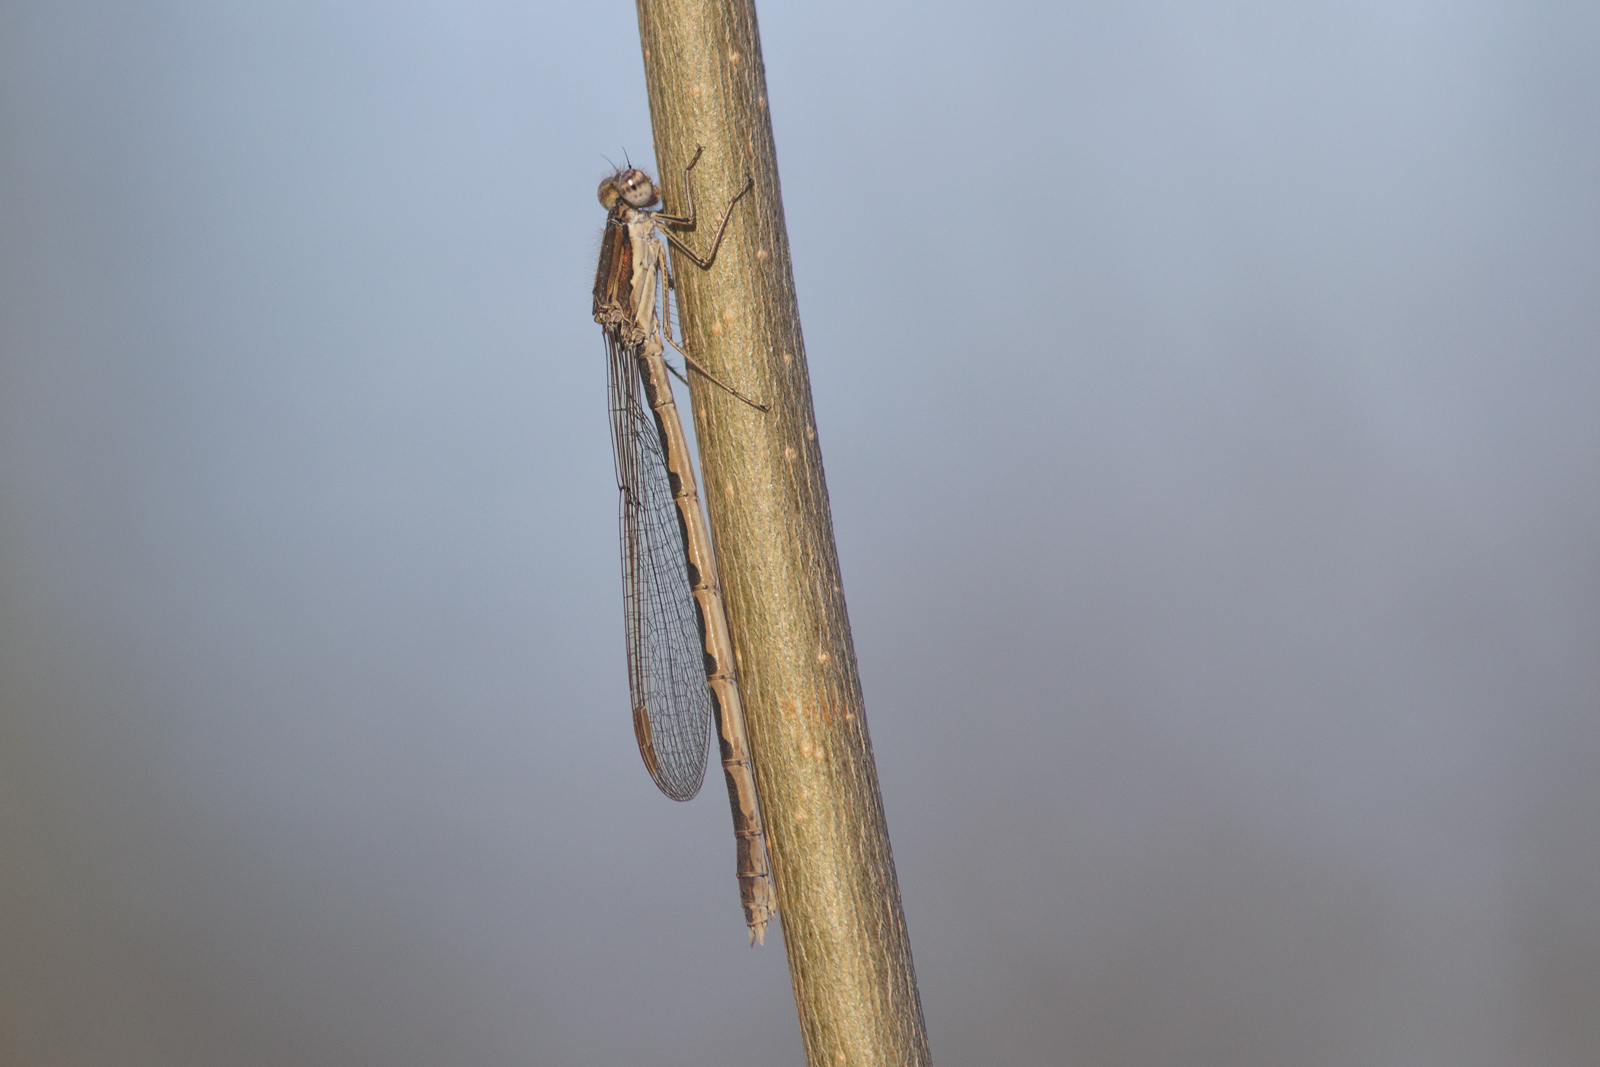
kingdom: Animalia
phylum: Arthropoda
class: Insecta
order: Odonata
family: Lestidae
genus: Sympecma
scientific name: Sympecma fusca
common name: Common winter damsel
